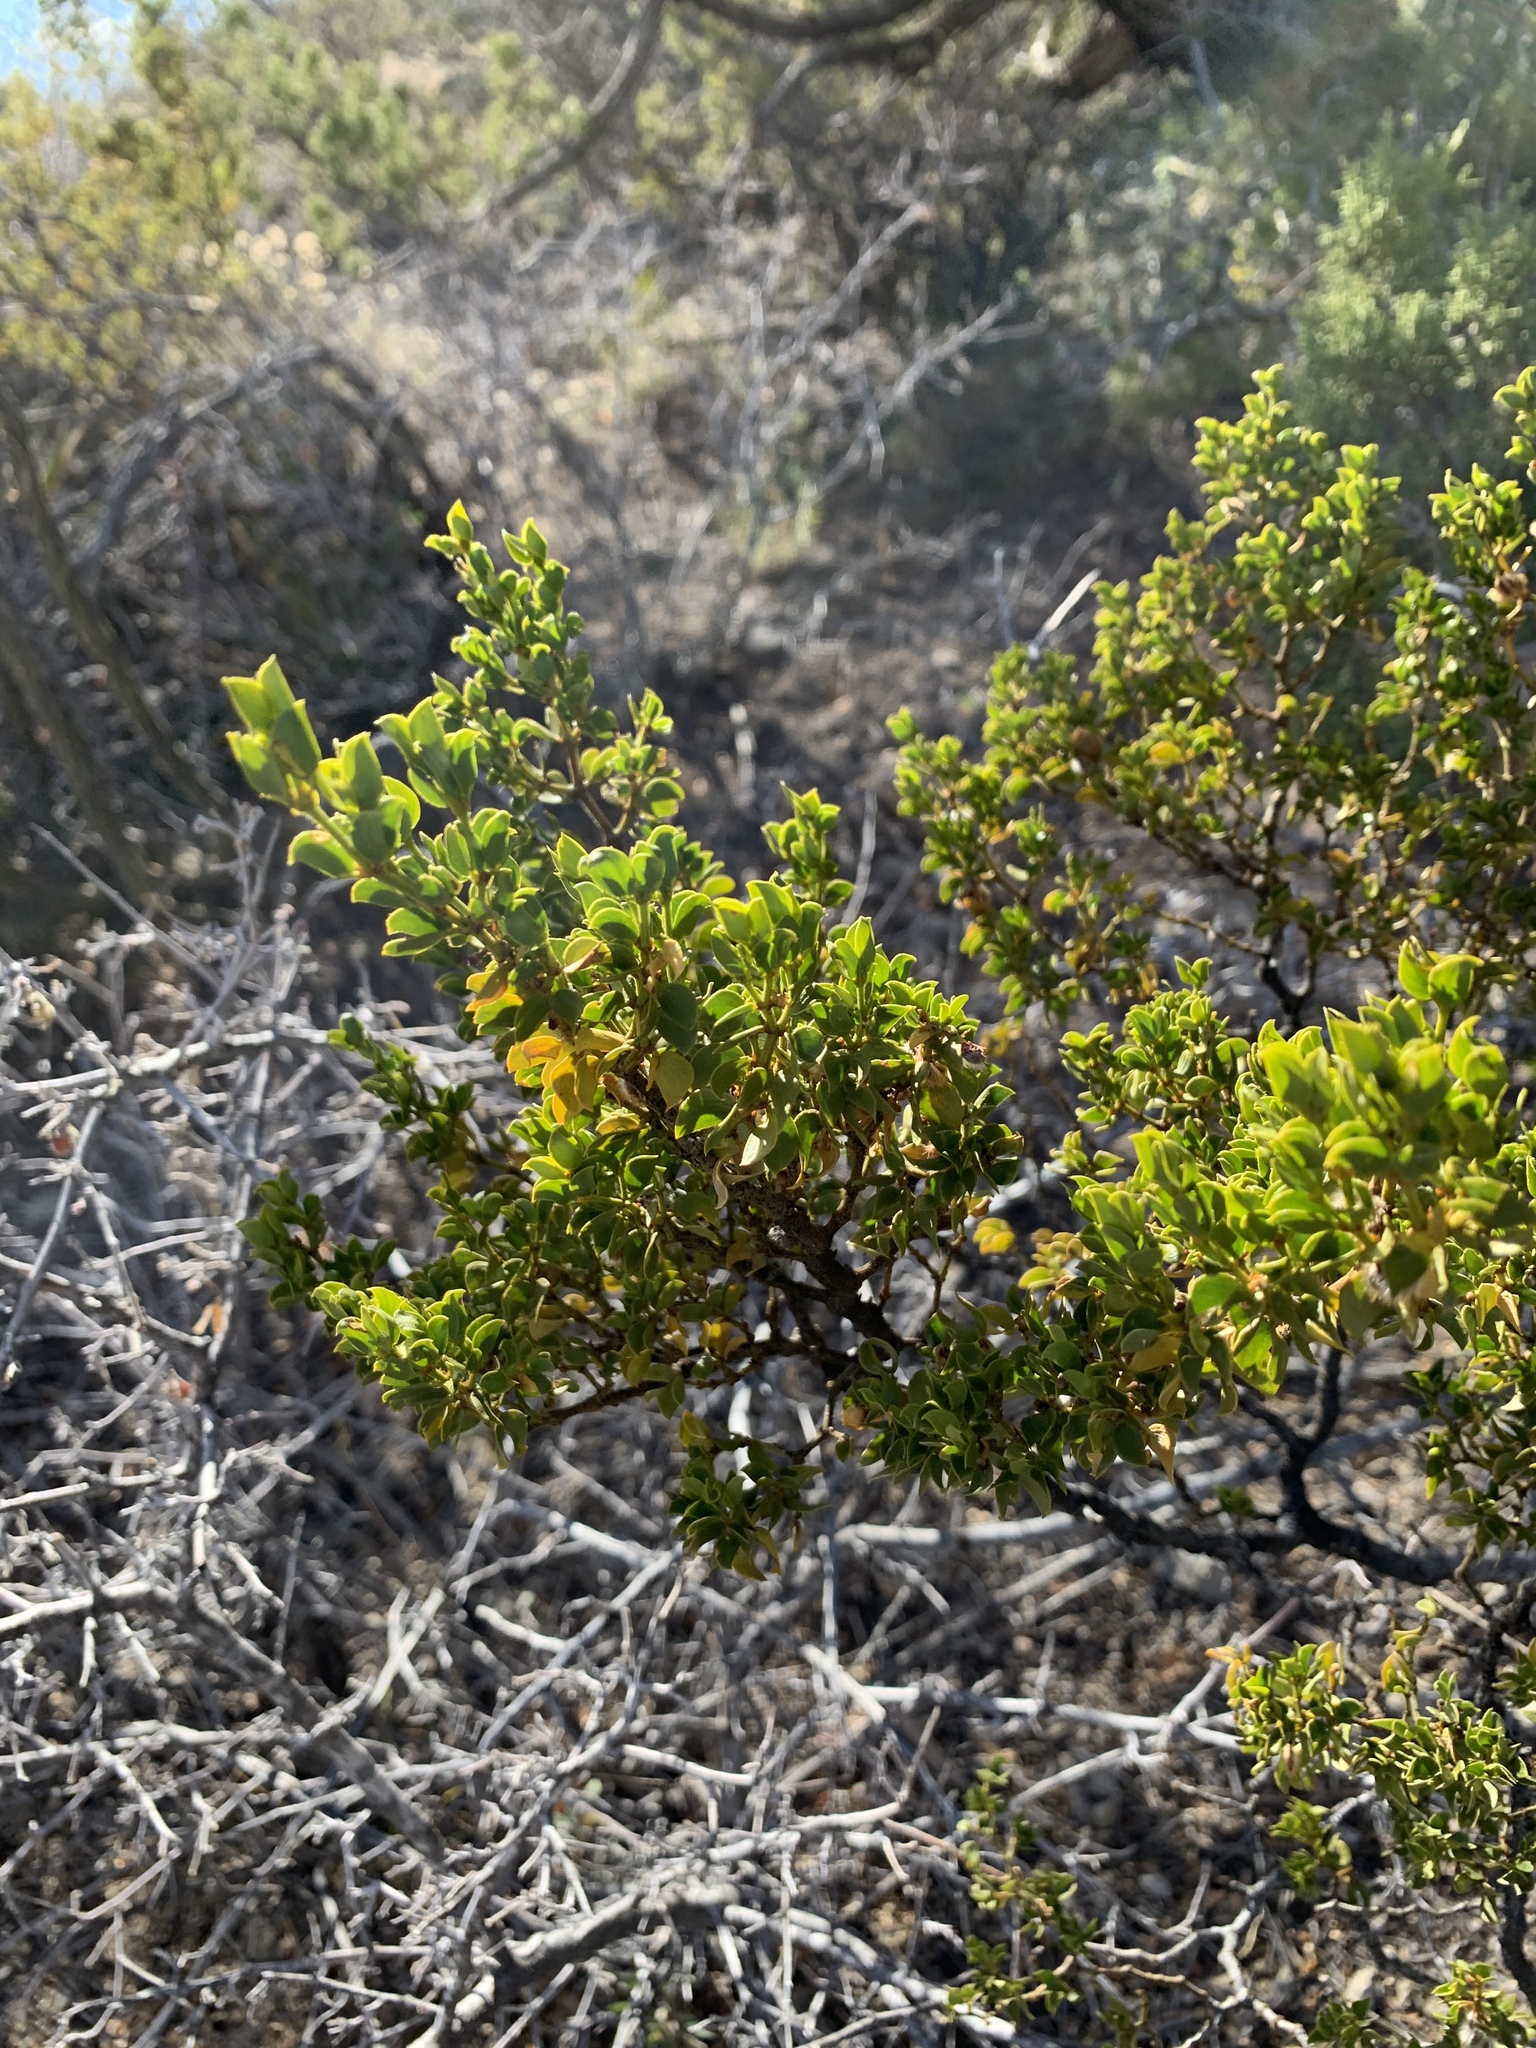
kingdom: Plantae
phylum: Tracheophyta
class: Magnoliopsida
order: Zygophyllales
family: Zygophyllaceae
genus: Larrea
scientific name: Larrea tridentata
